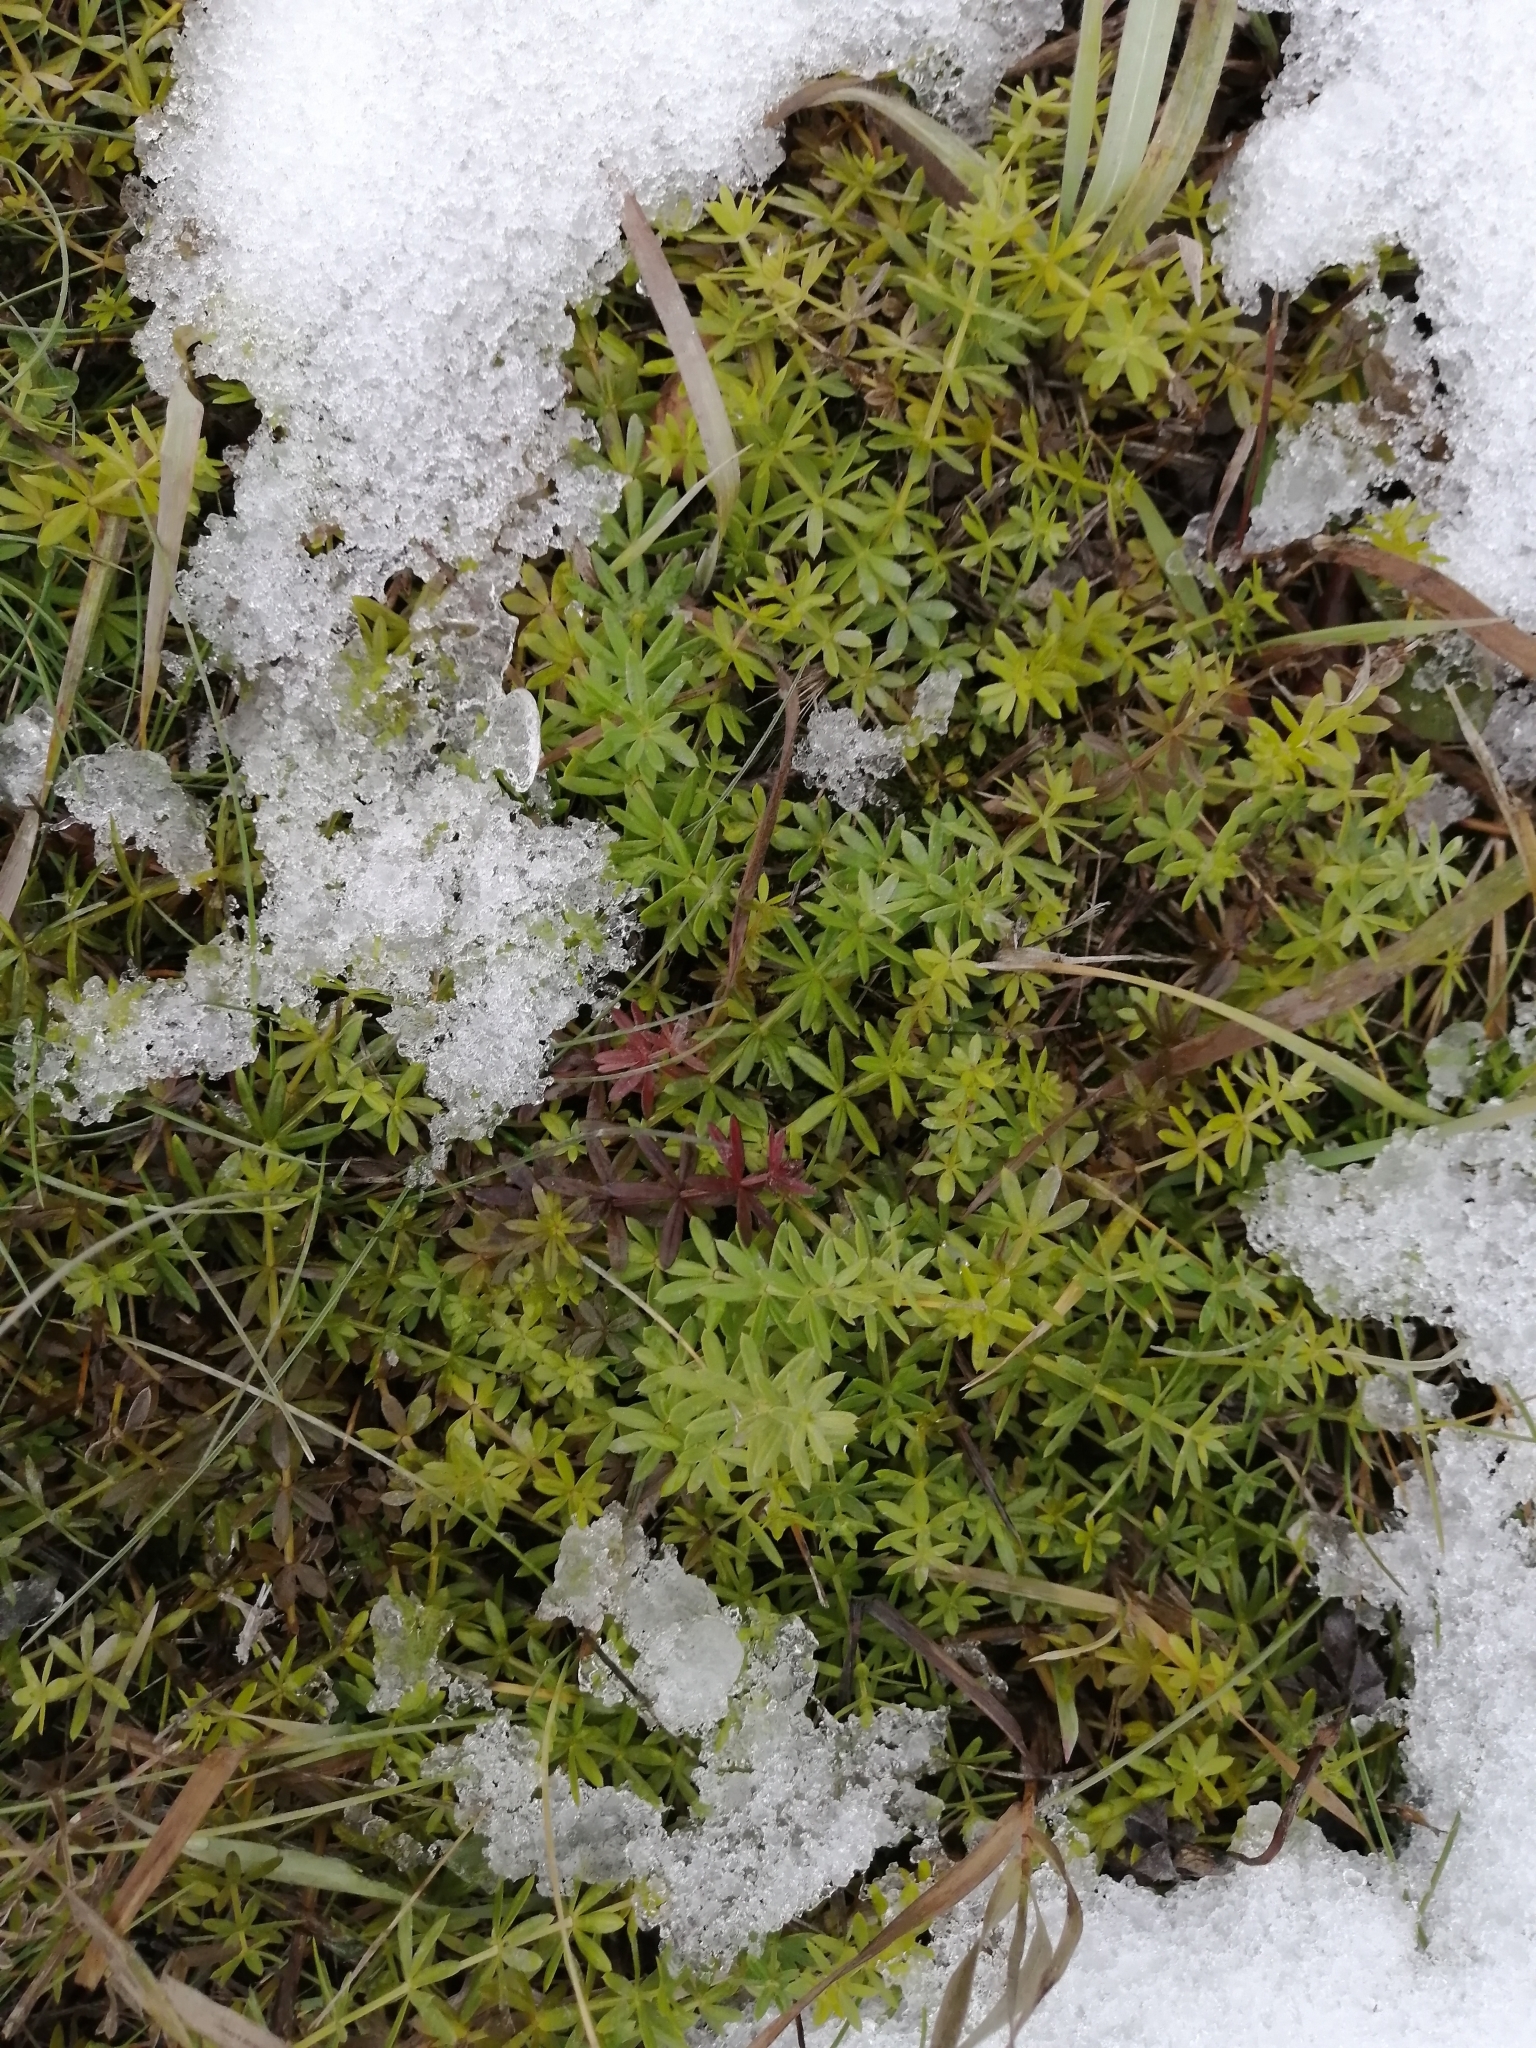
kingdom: Plantae
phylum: Tracheophyta
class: Magnoliopsida
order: Gentianales
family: Rubiaceae
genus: Galium
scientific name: Galium mollugo
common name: Hedge bedstraw
